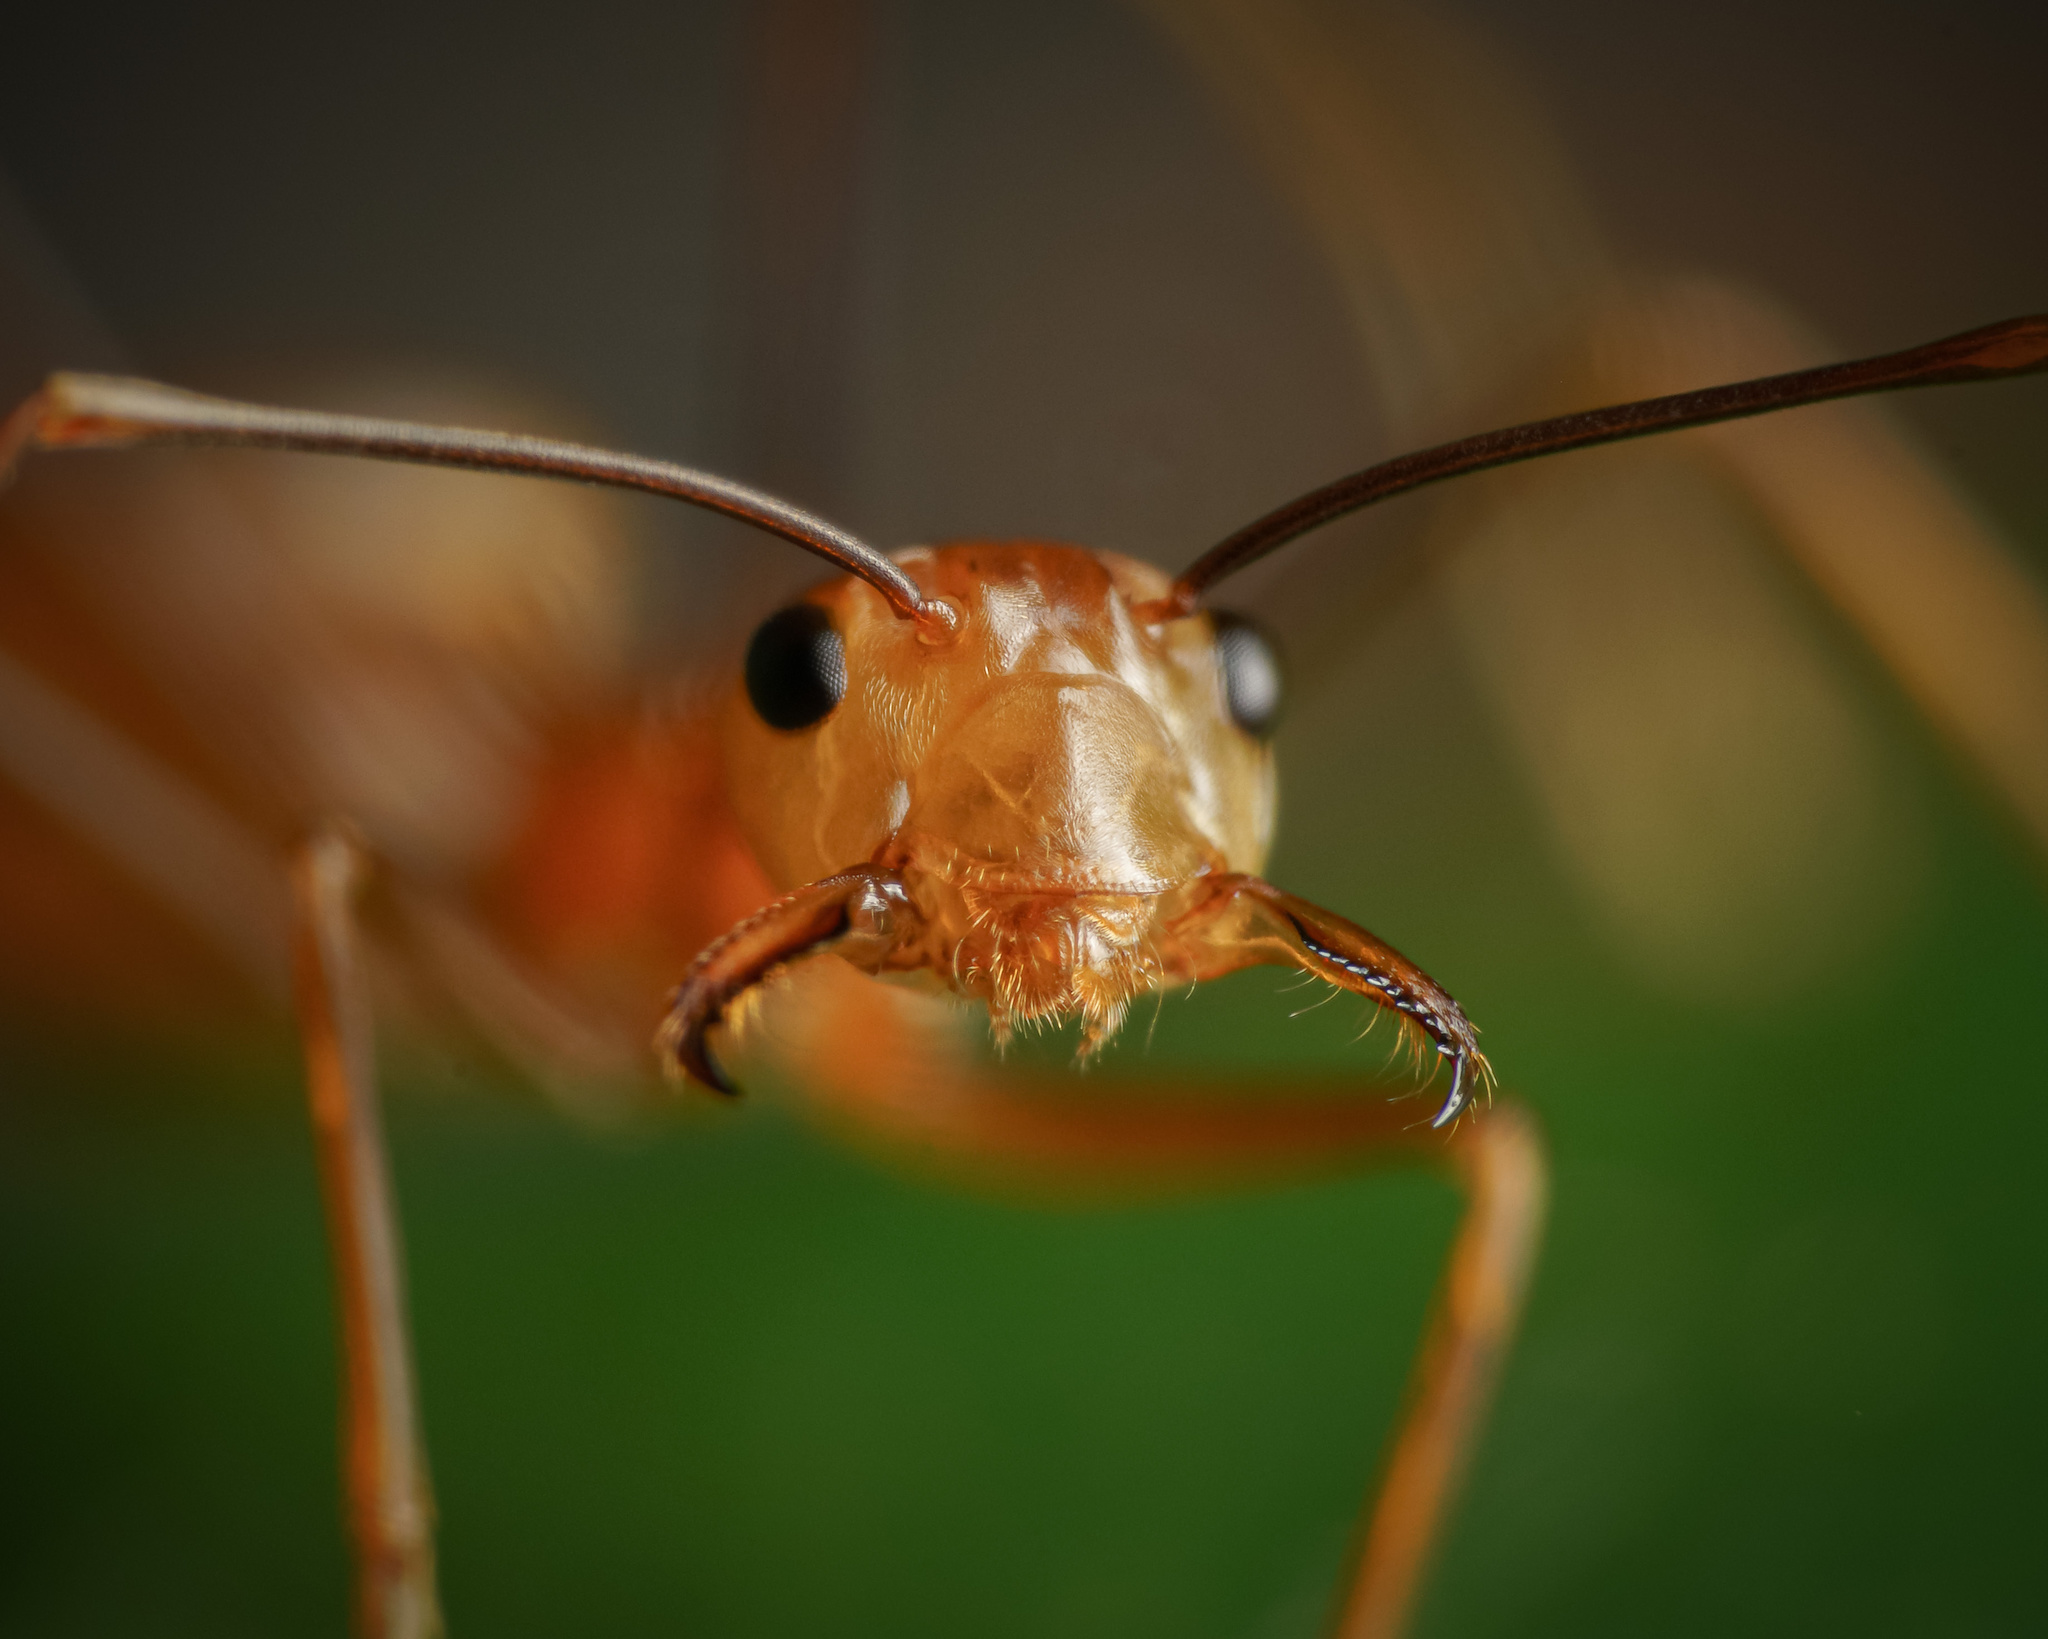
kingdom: Animalia
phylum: Arthropoda
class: Insecta
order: Hymenoptera
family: Formicidae
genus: Oecophylla
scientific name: Oecophylla smaragdina
